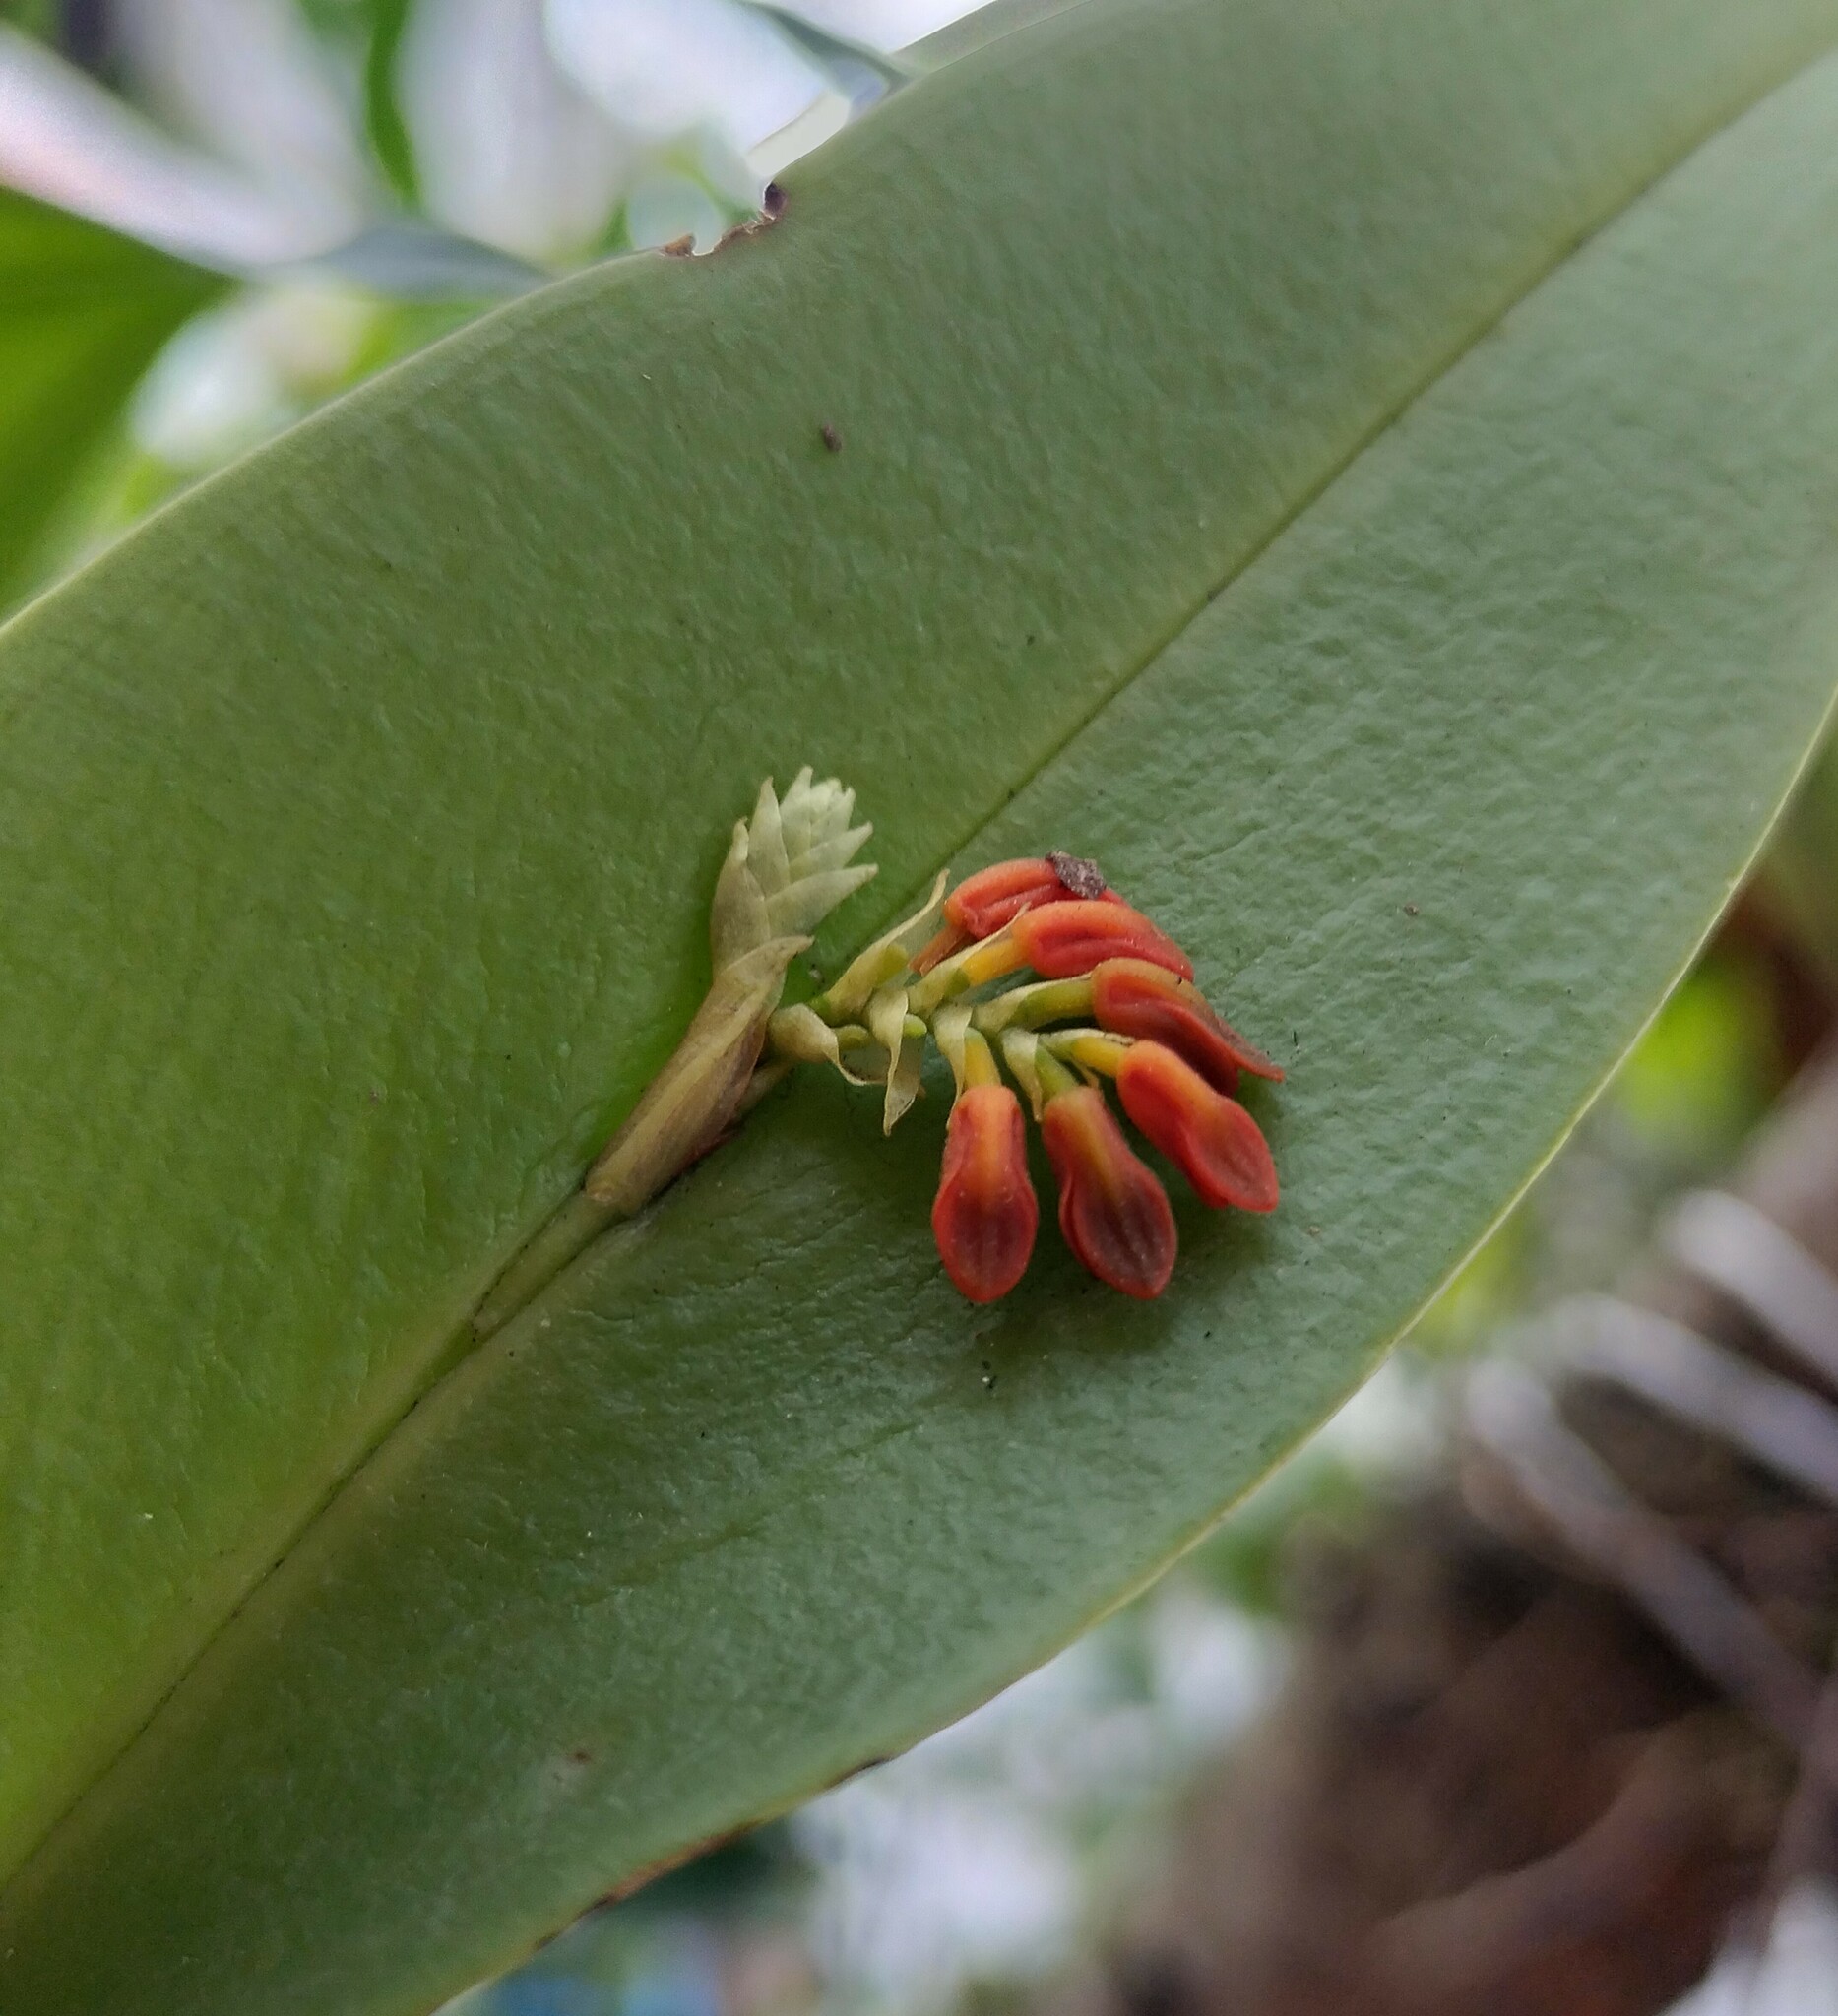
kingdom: Plantae
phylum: Tracheophyta
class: Liliopsida
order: Asparagales
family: Orchidaceae
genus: Acianthera
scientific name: Acianthera circumplexa
